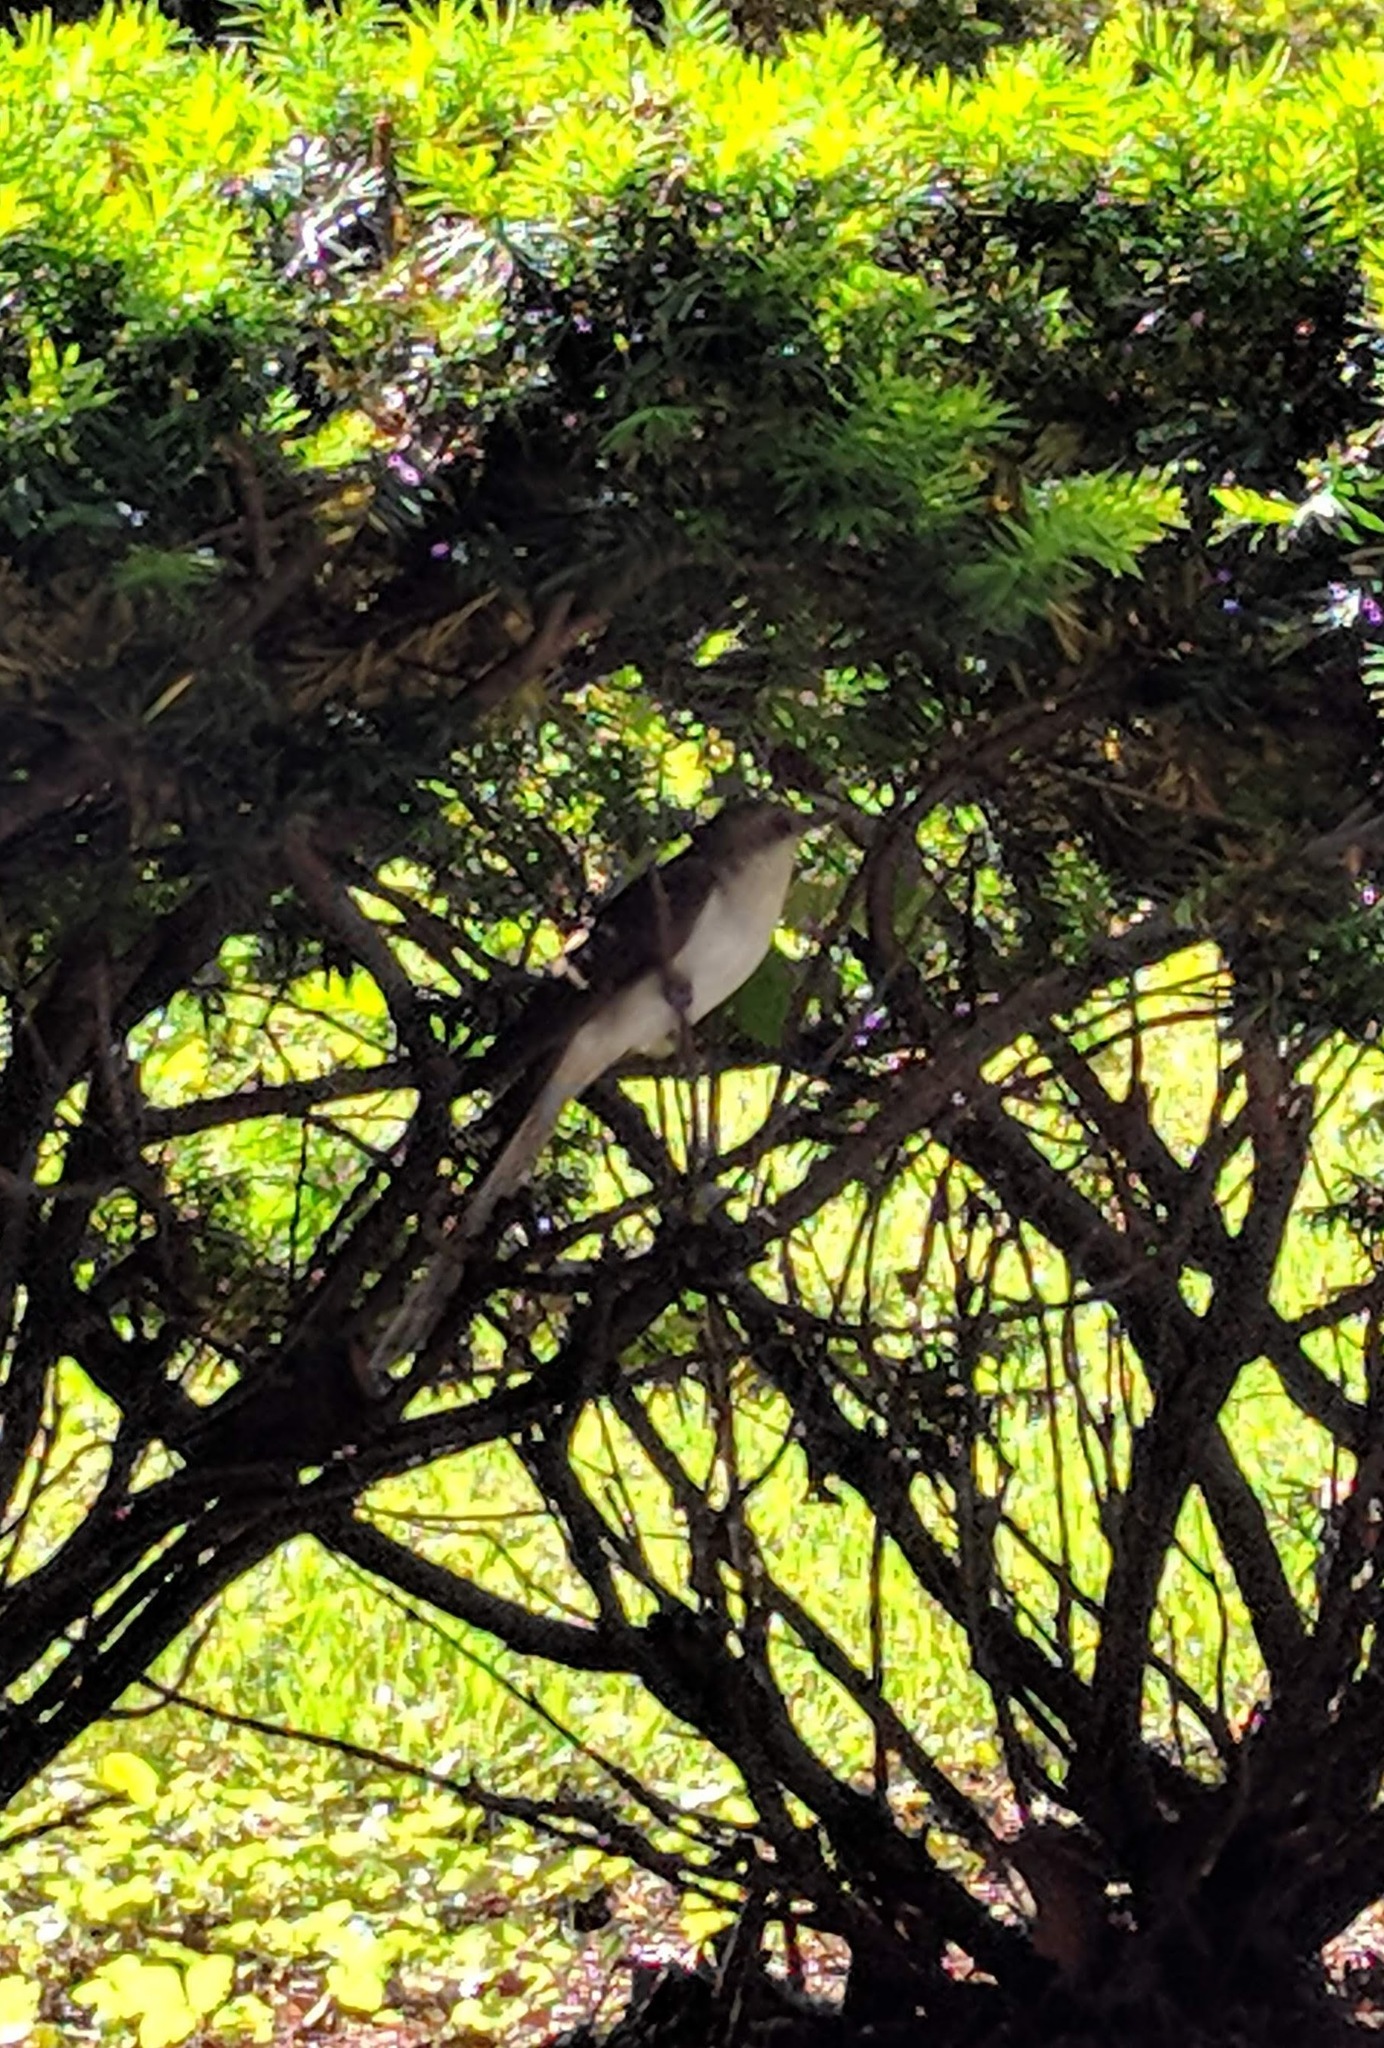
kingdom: Animalia
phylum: Chordata
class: Aves
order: Cuculiformes
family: Cuculidae
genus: Coccyzus
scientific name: Coccyzus erythropthalmus
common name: Black-billed cuckoo
